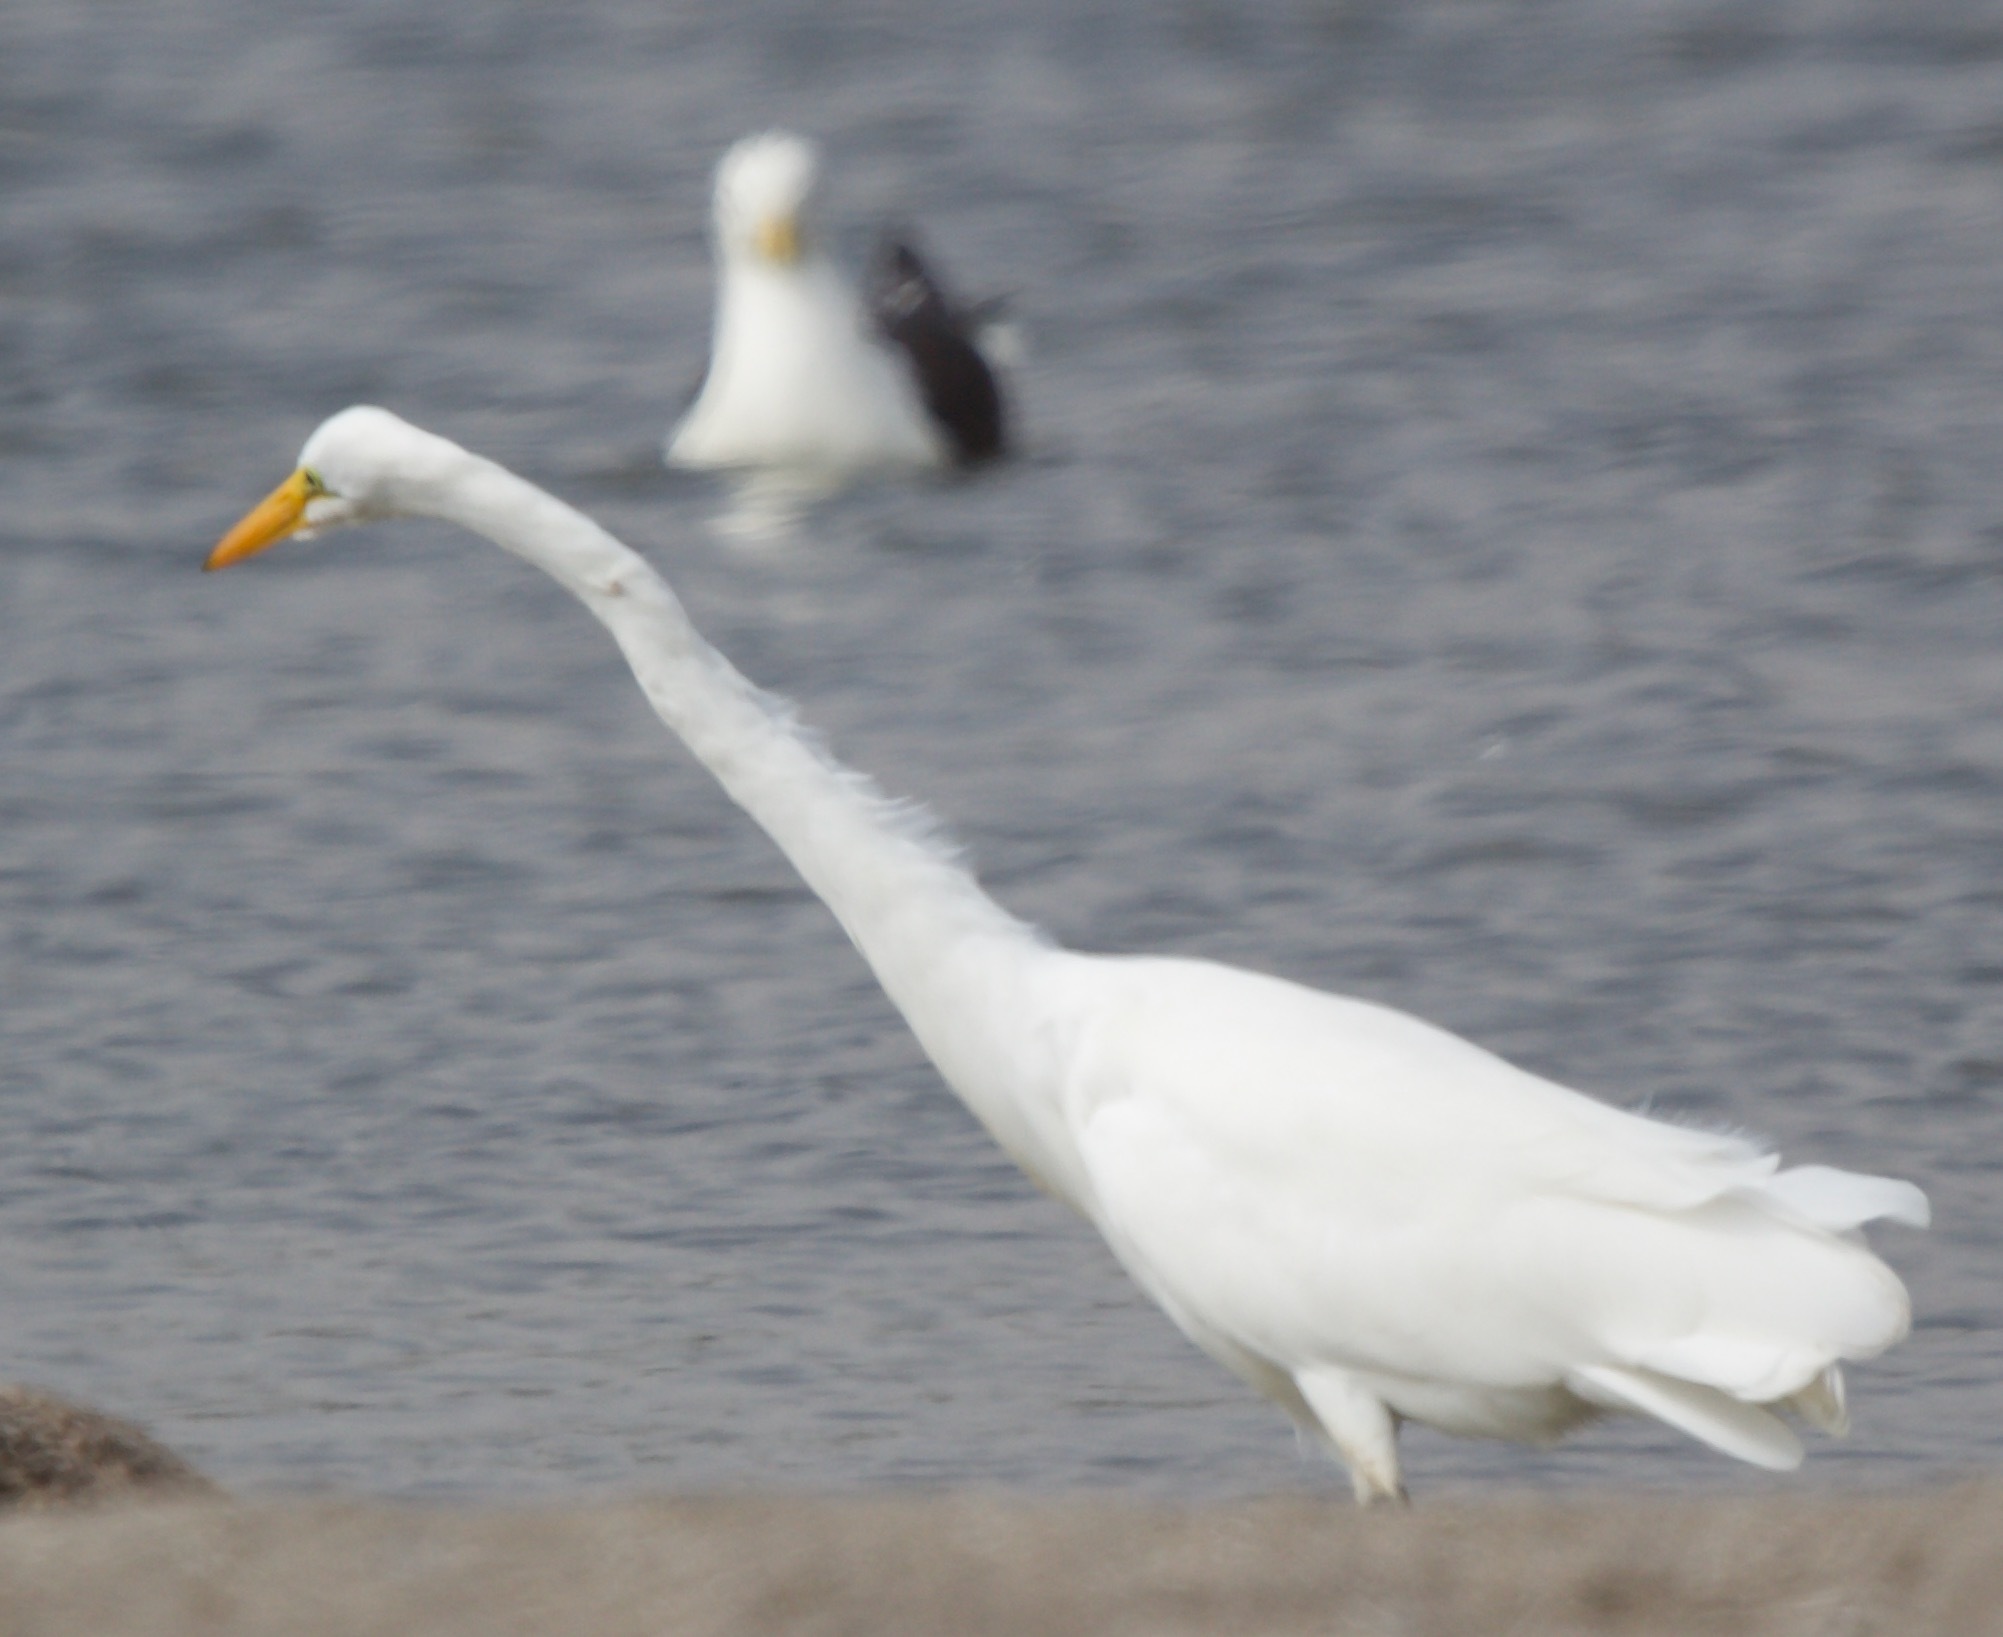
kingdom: Animalia
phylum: Chordata
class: Aves
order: Pelecaniformes
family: Ardeidae
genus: Ardea
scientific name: Ardea alba
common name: Great egret
